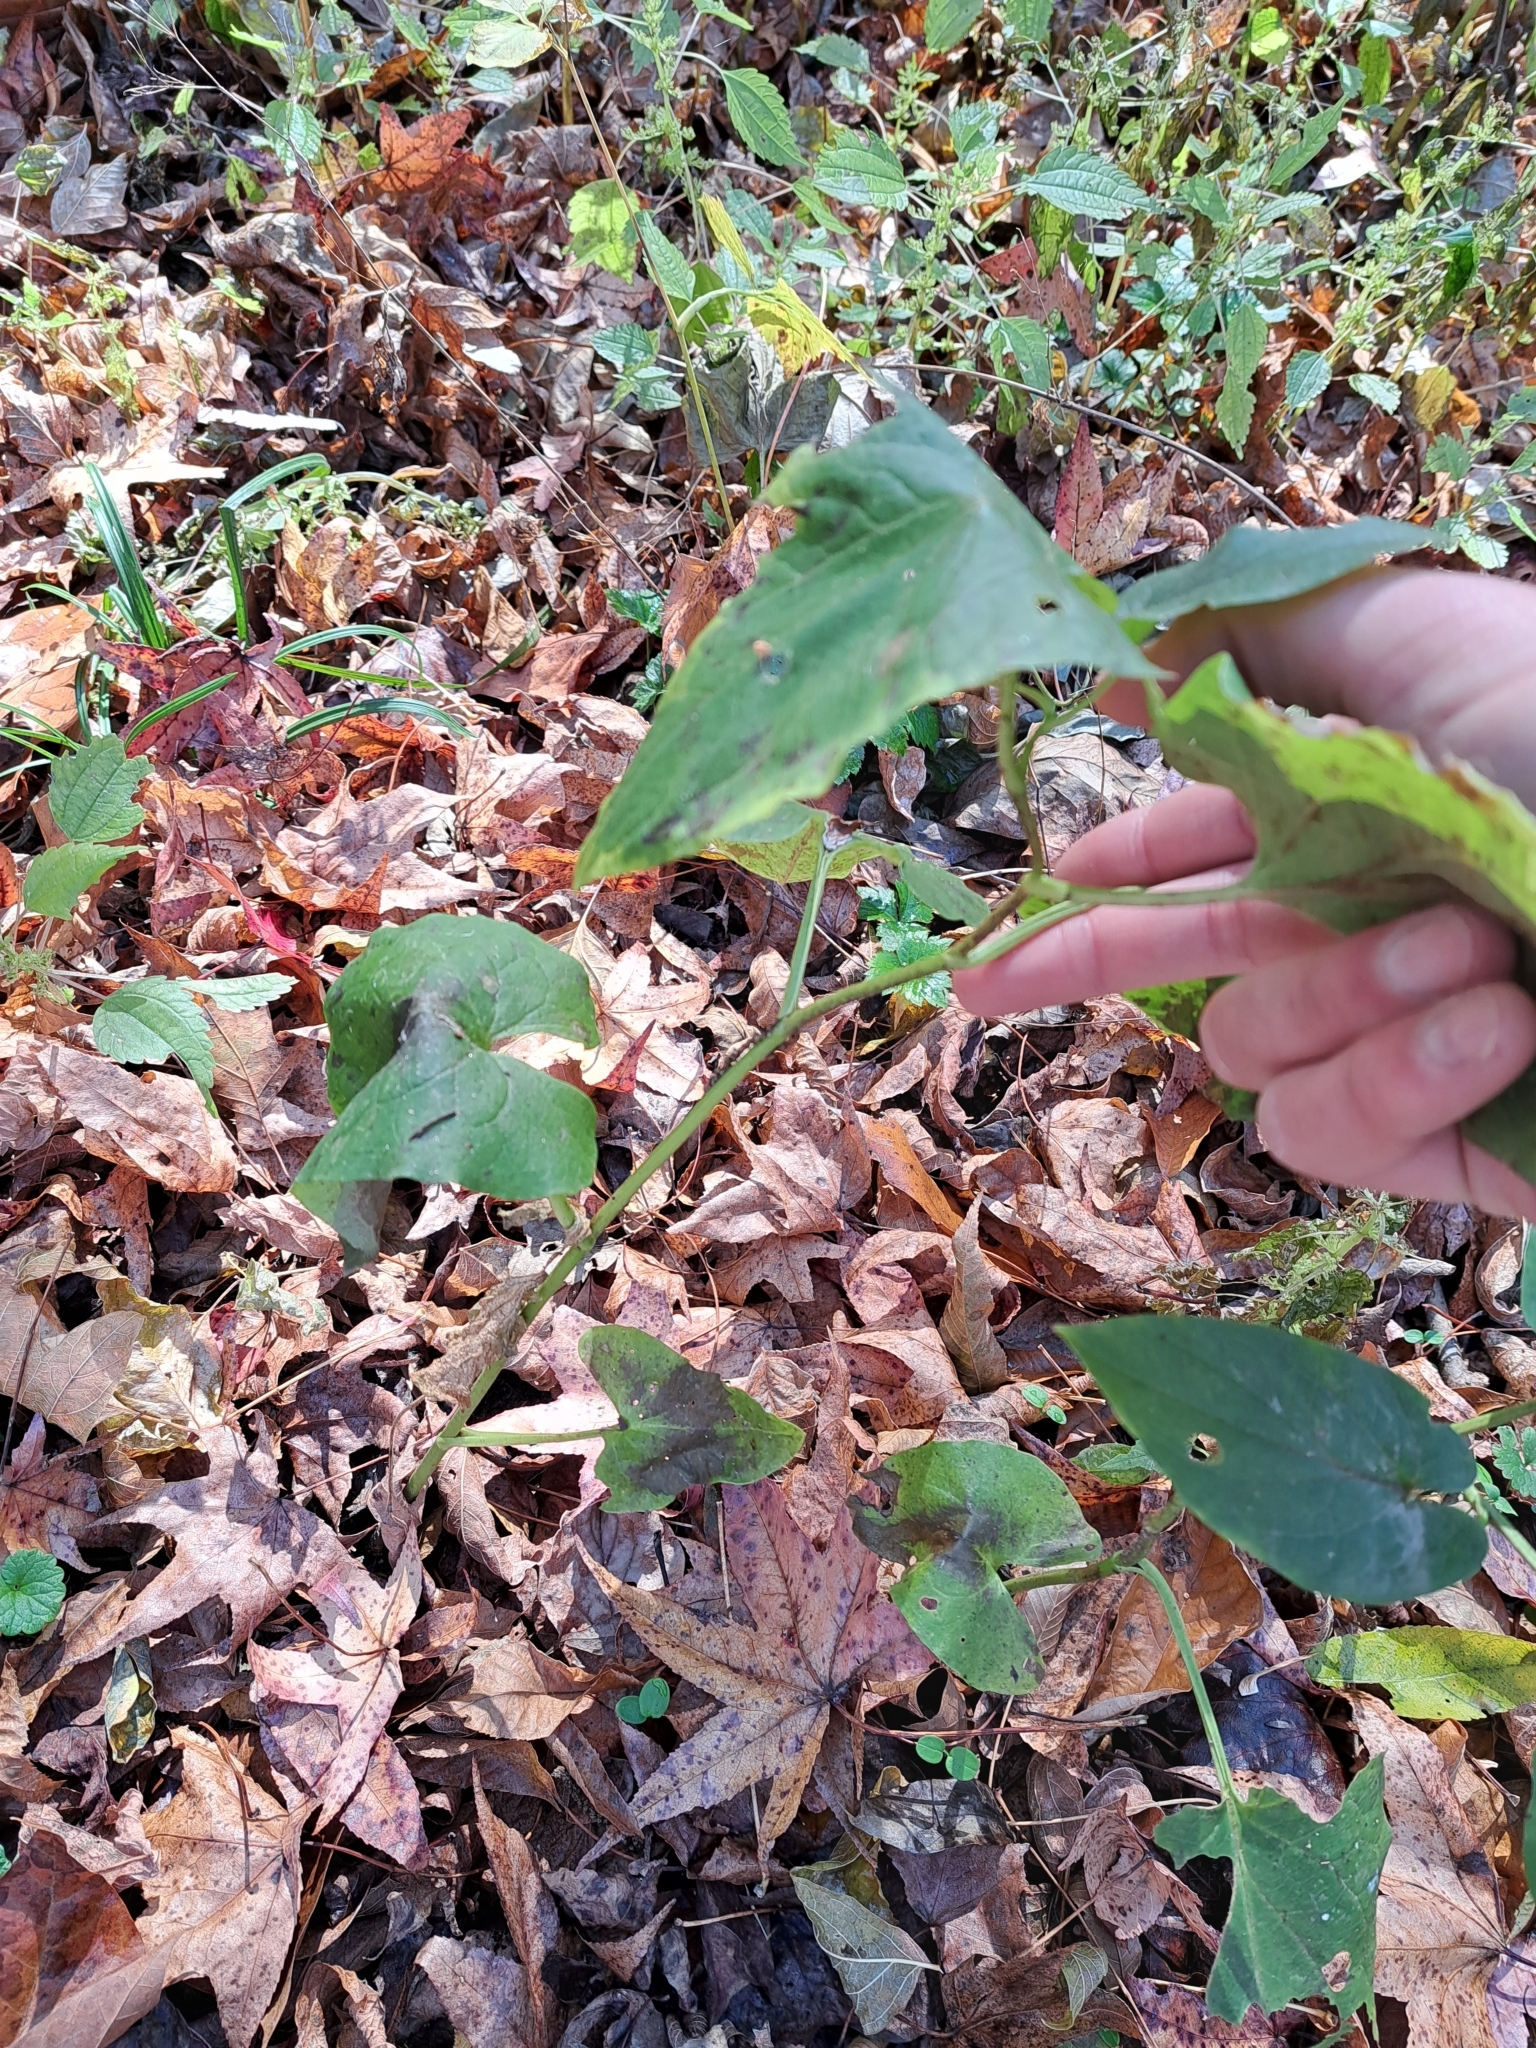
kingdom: Plantae
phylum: Tracheophyta
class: Magnoliopsida
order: Piperales
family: Saururaceae
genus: Saururus
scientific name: Saururus cernuus
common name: Lizard's-tail
